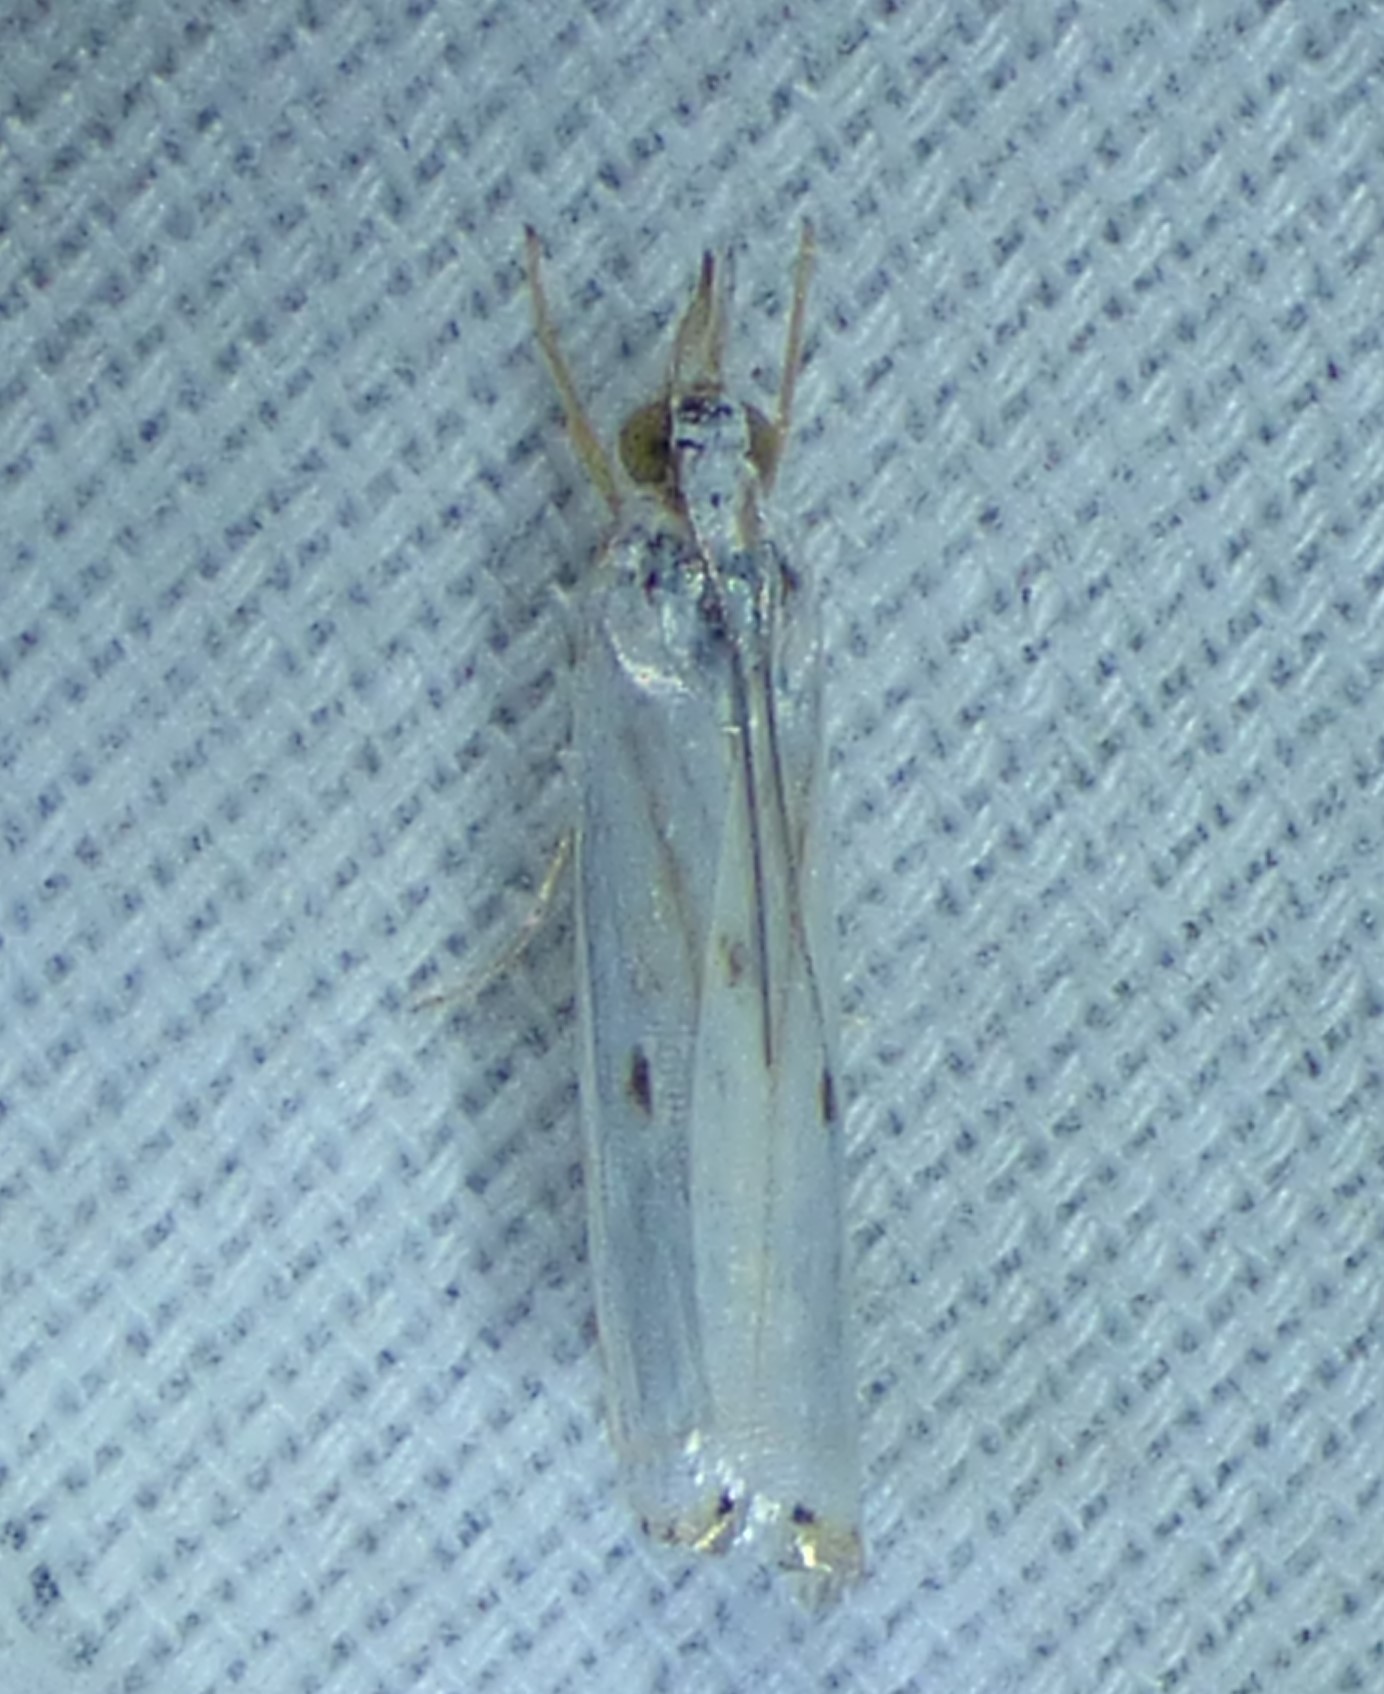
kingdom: Animalia
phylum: Arthropoda
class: Insecta
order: Lepidoptera
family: Crambidae
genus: Microcrambus
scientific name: Microcrambus biguttellus
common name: Gold-stripe grass-veneer moth
